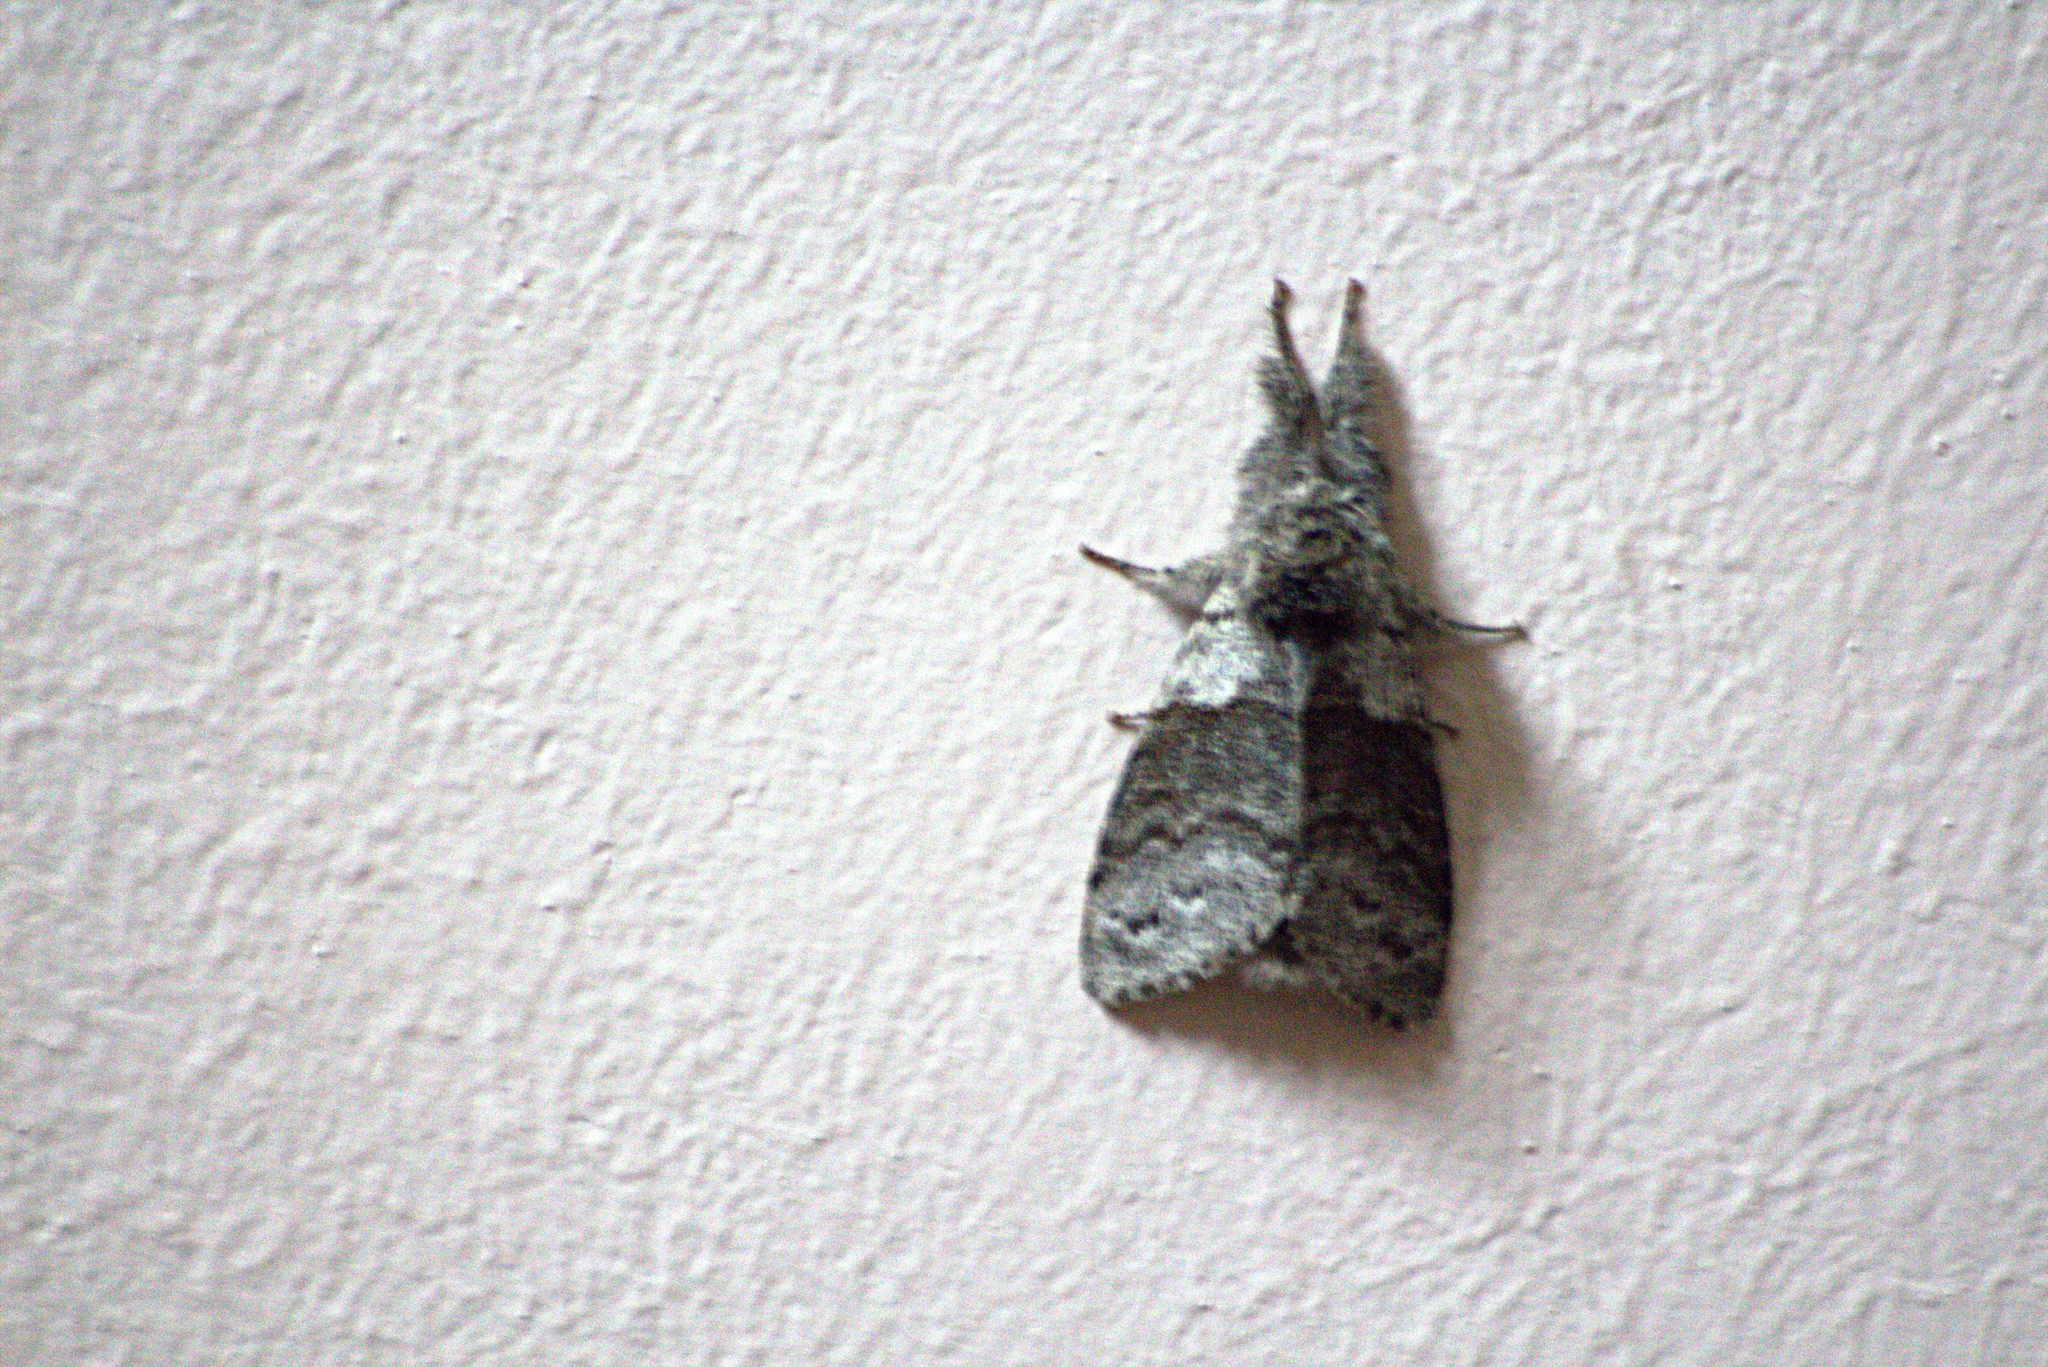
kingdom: Animalia
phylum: Arthropoda
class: Insecta
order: Lepidoptera
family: Erebidae
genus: Calliteara
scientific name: Calliteara pudibunda
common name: Pale tussock
